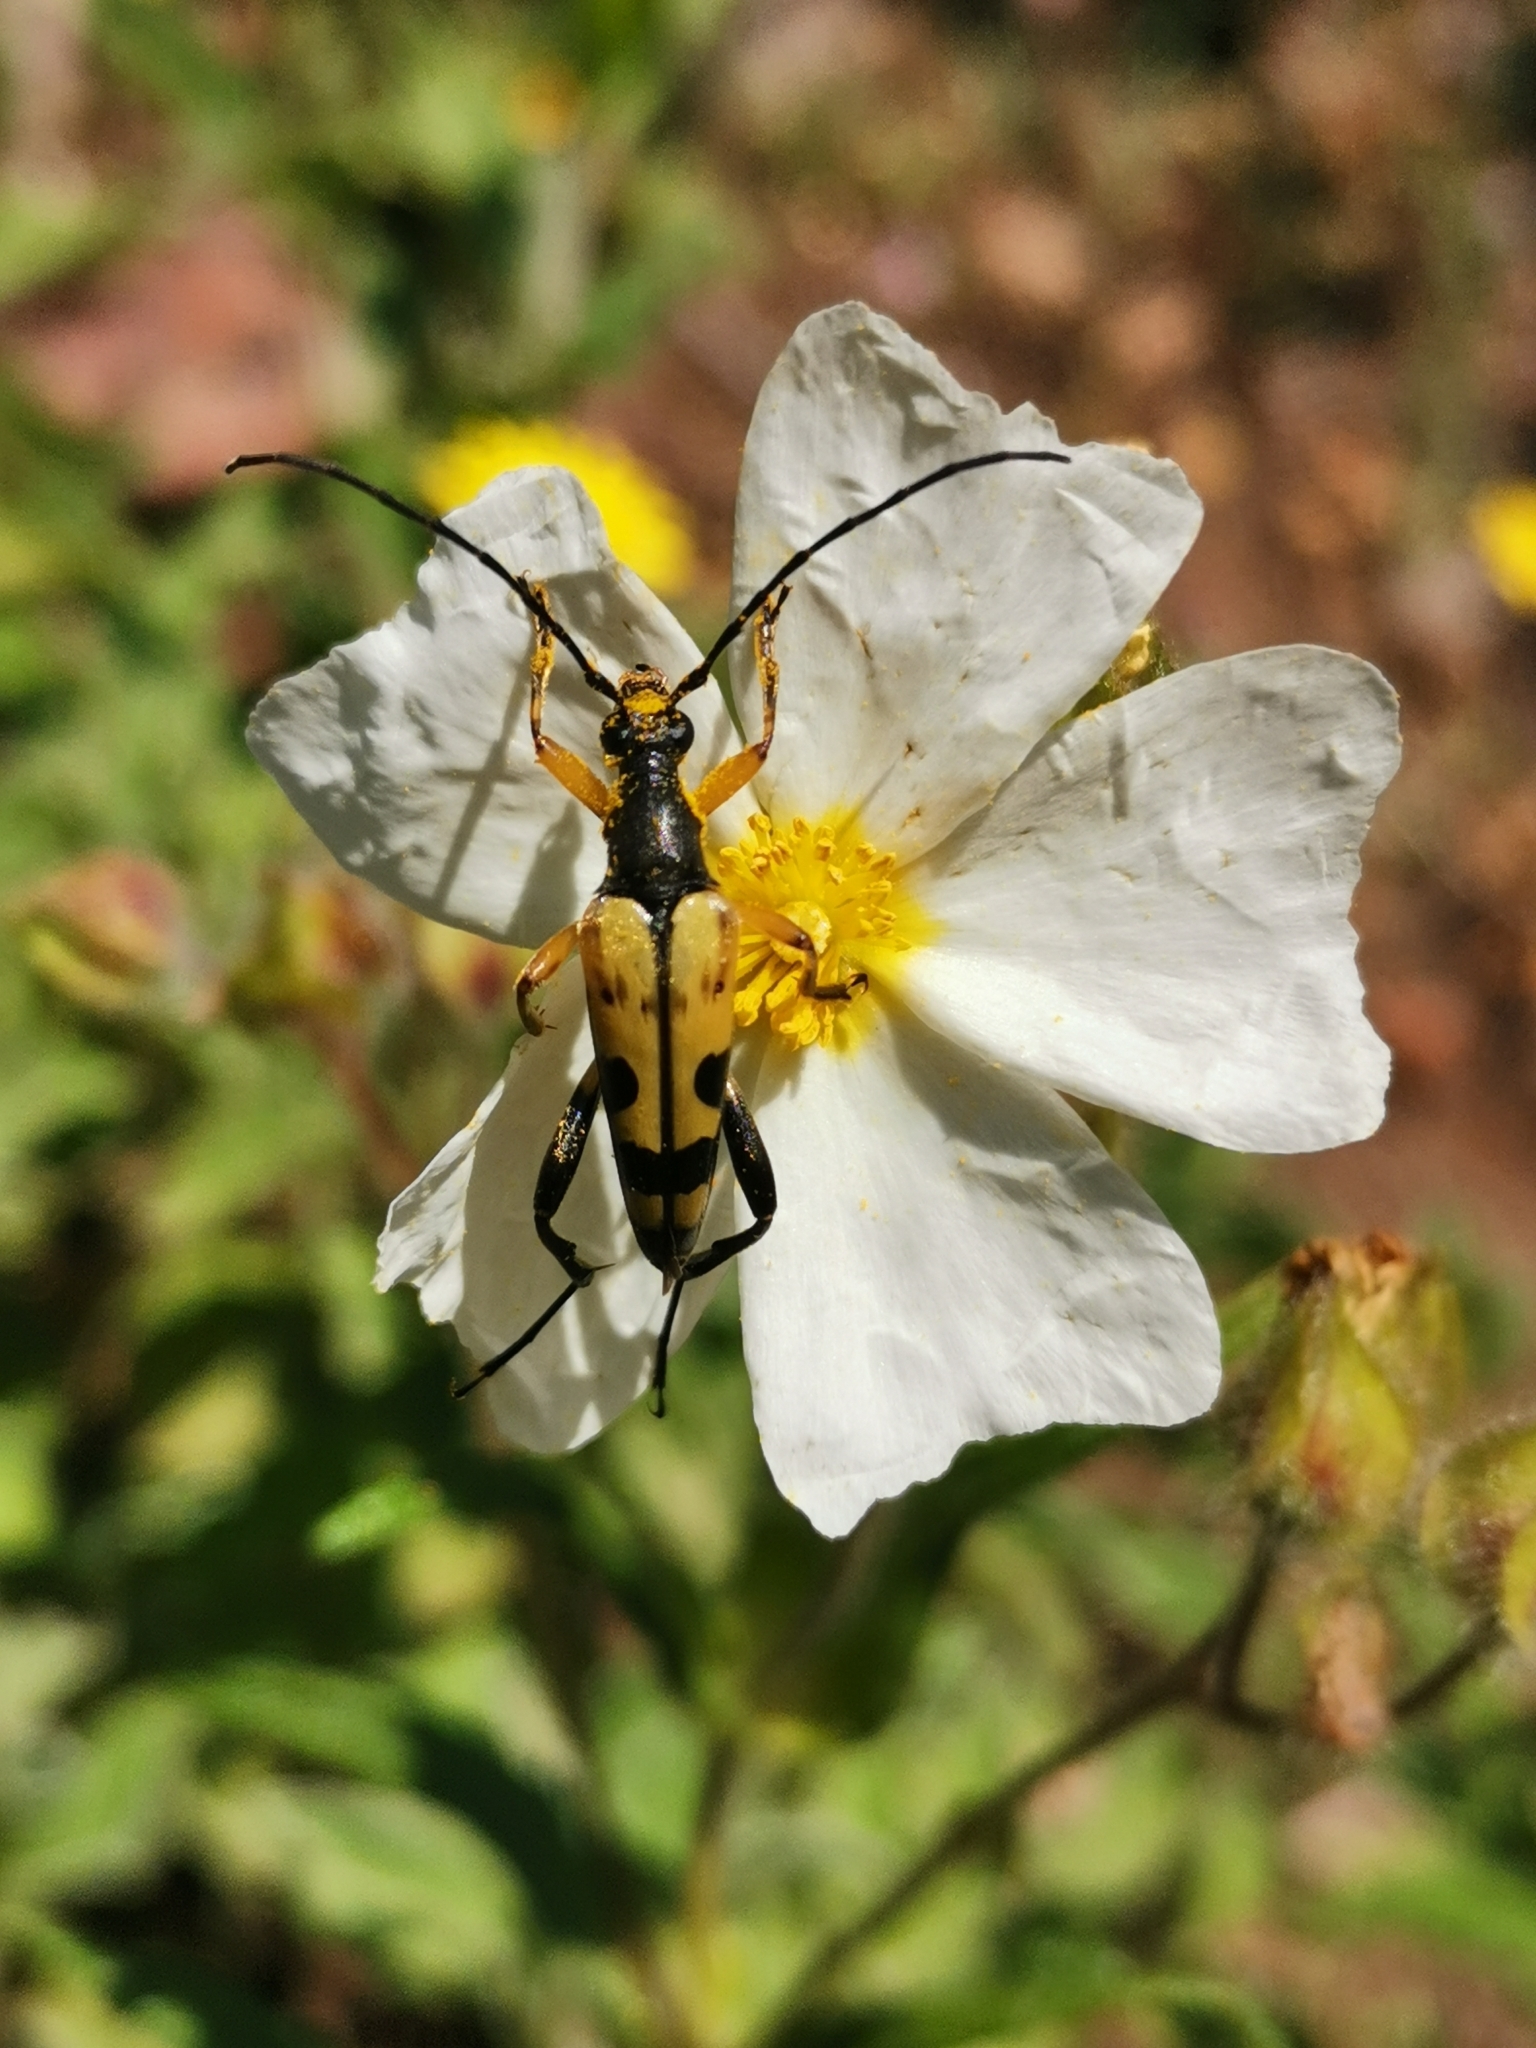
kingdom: Animalia
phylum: Arthropoda
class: Insecta
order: Coleoptera
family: Cerambycidae
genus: Rutpela
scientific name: Rutpela maculata
